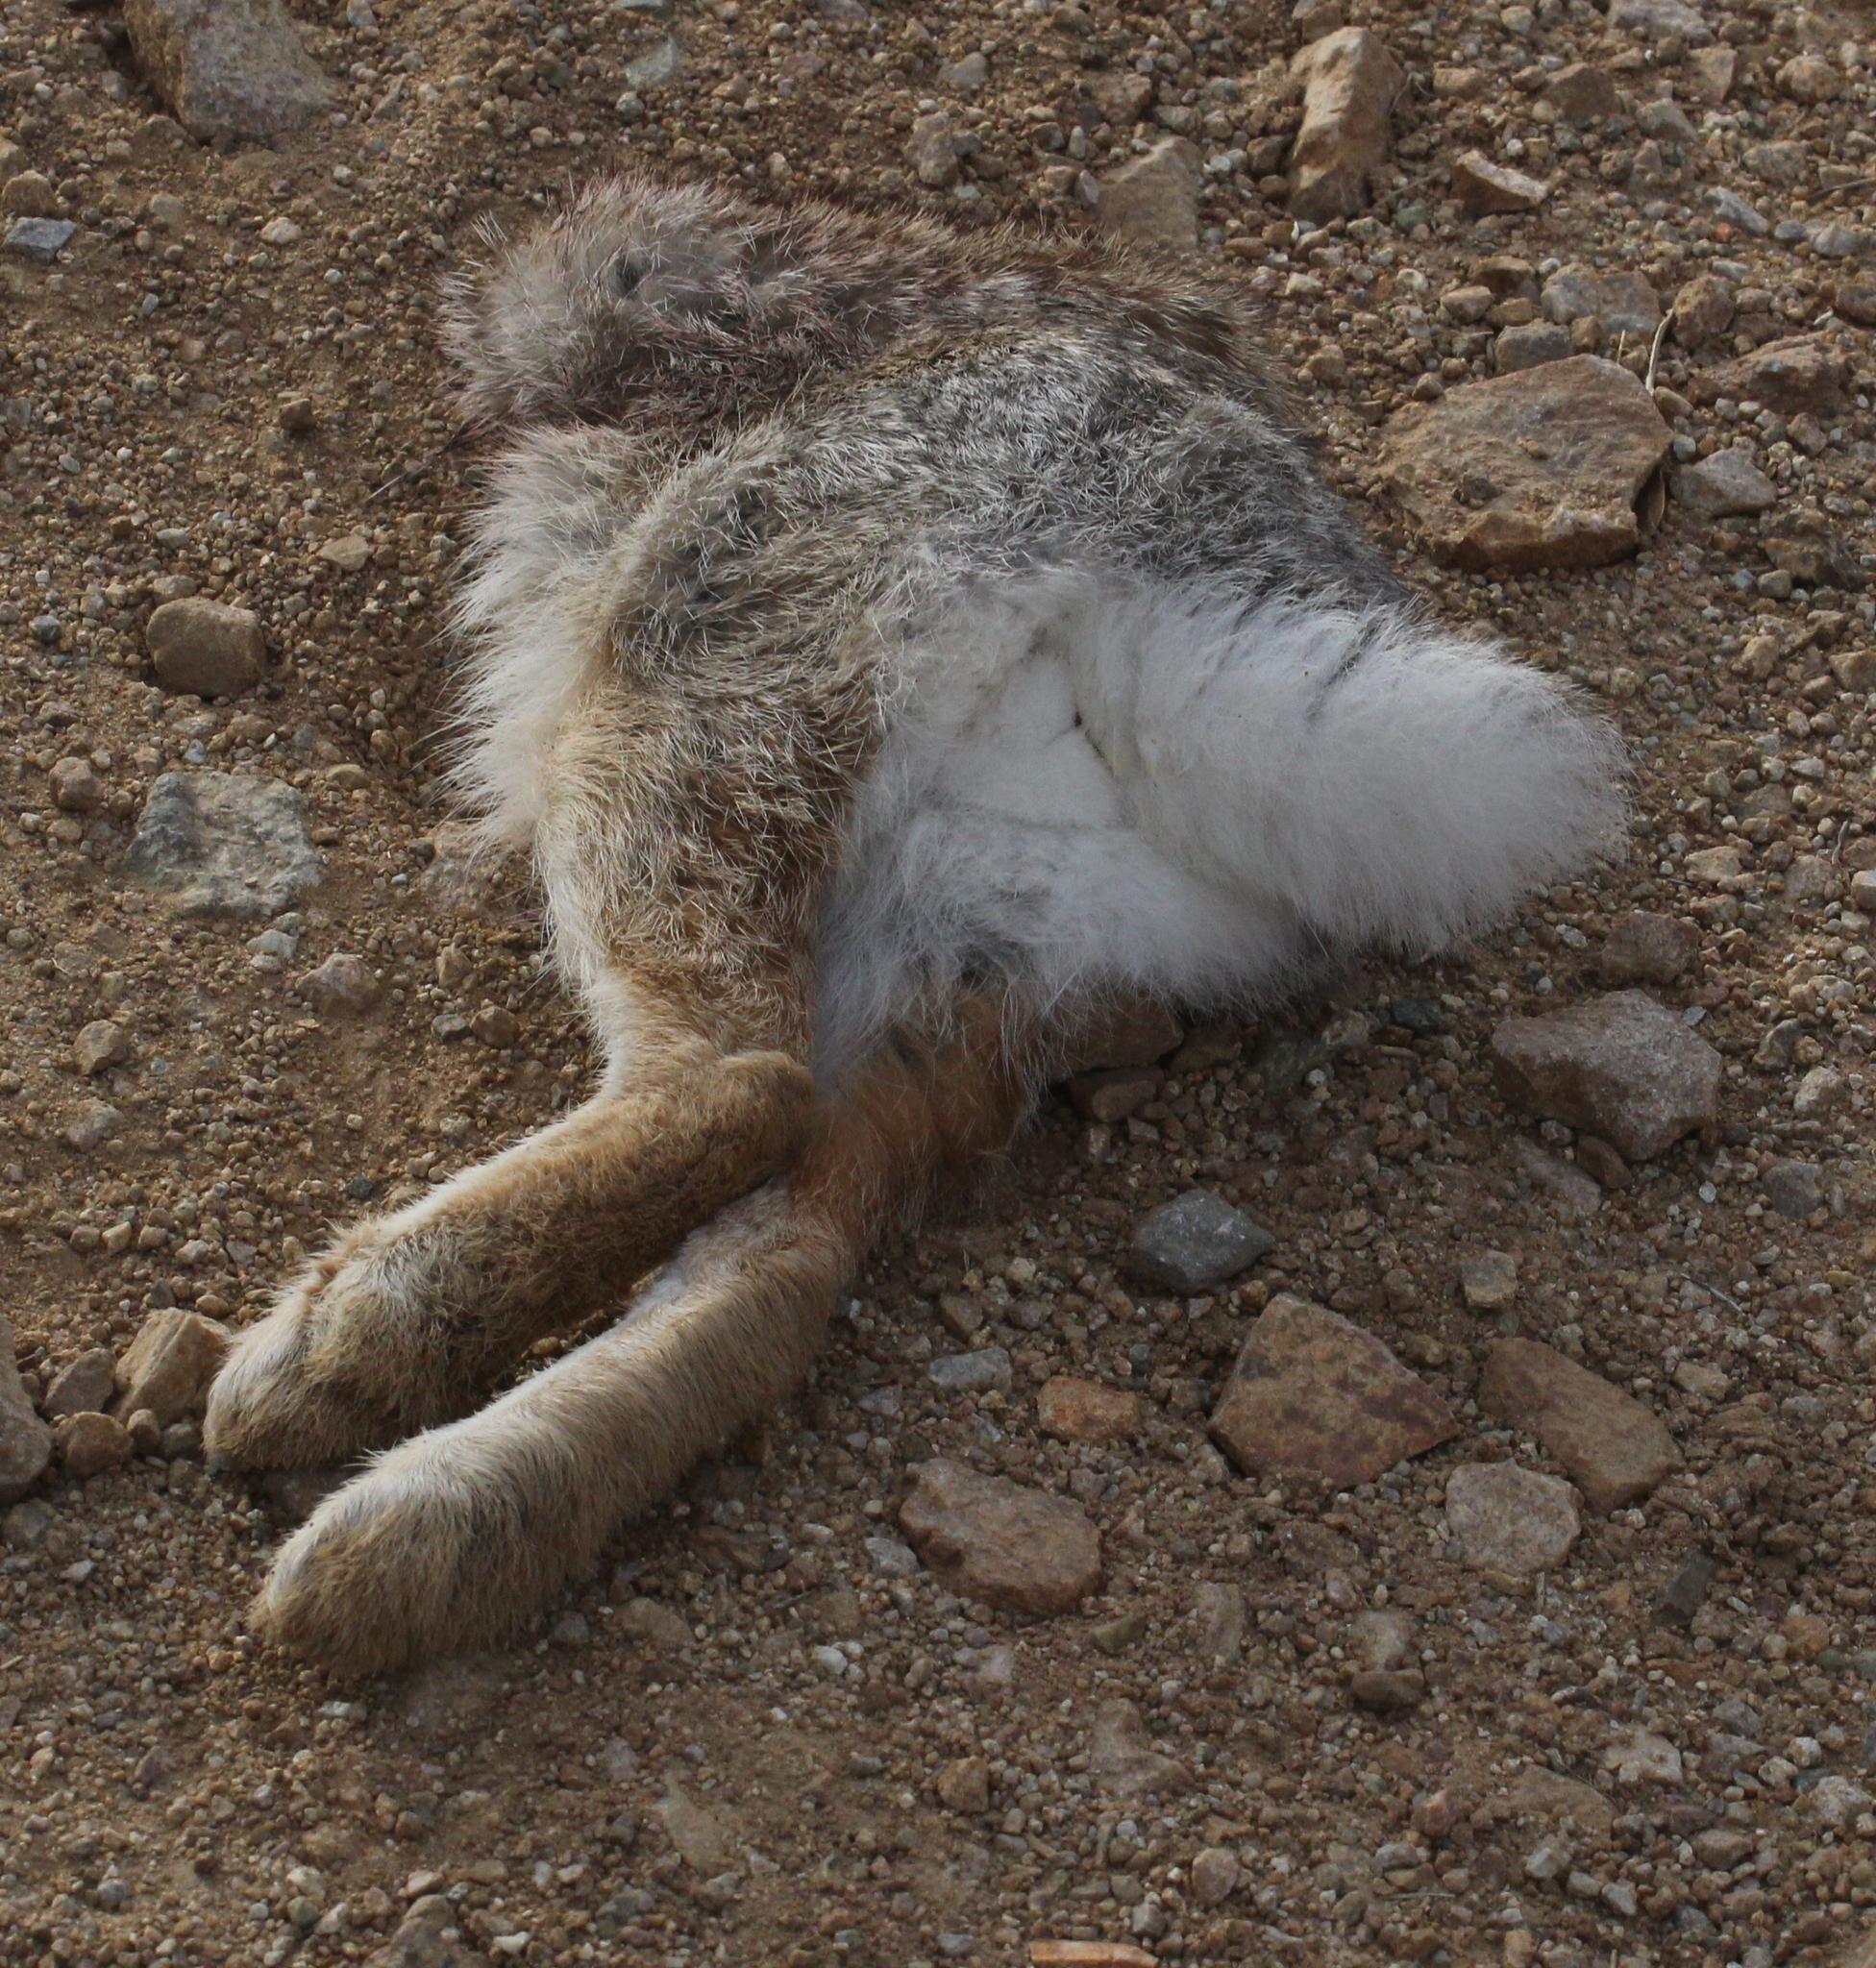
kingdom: Animalia
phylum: Chordata
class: Mammalia
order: Lagomorpha
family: Leporidae
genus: Sylvilagus
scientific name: Sylvilagus audubonii
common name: Desert cottontail
